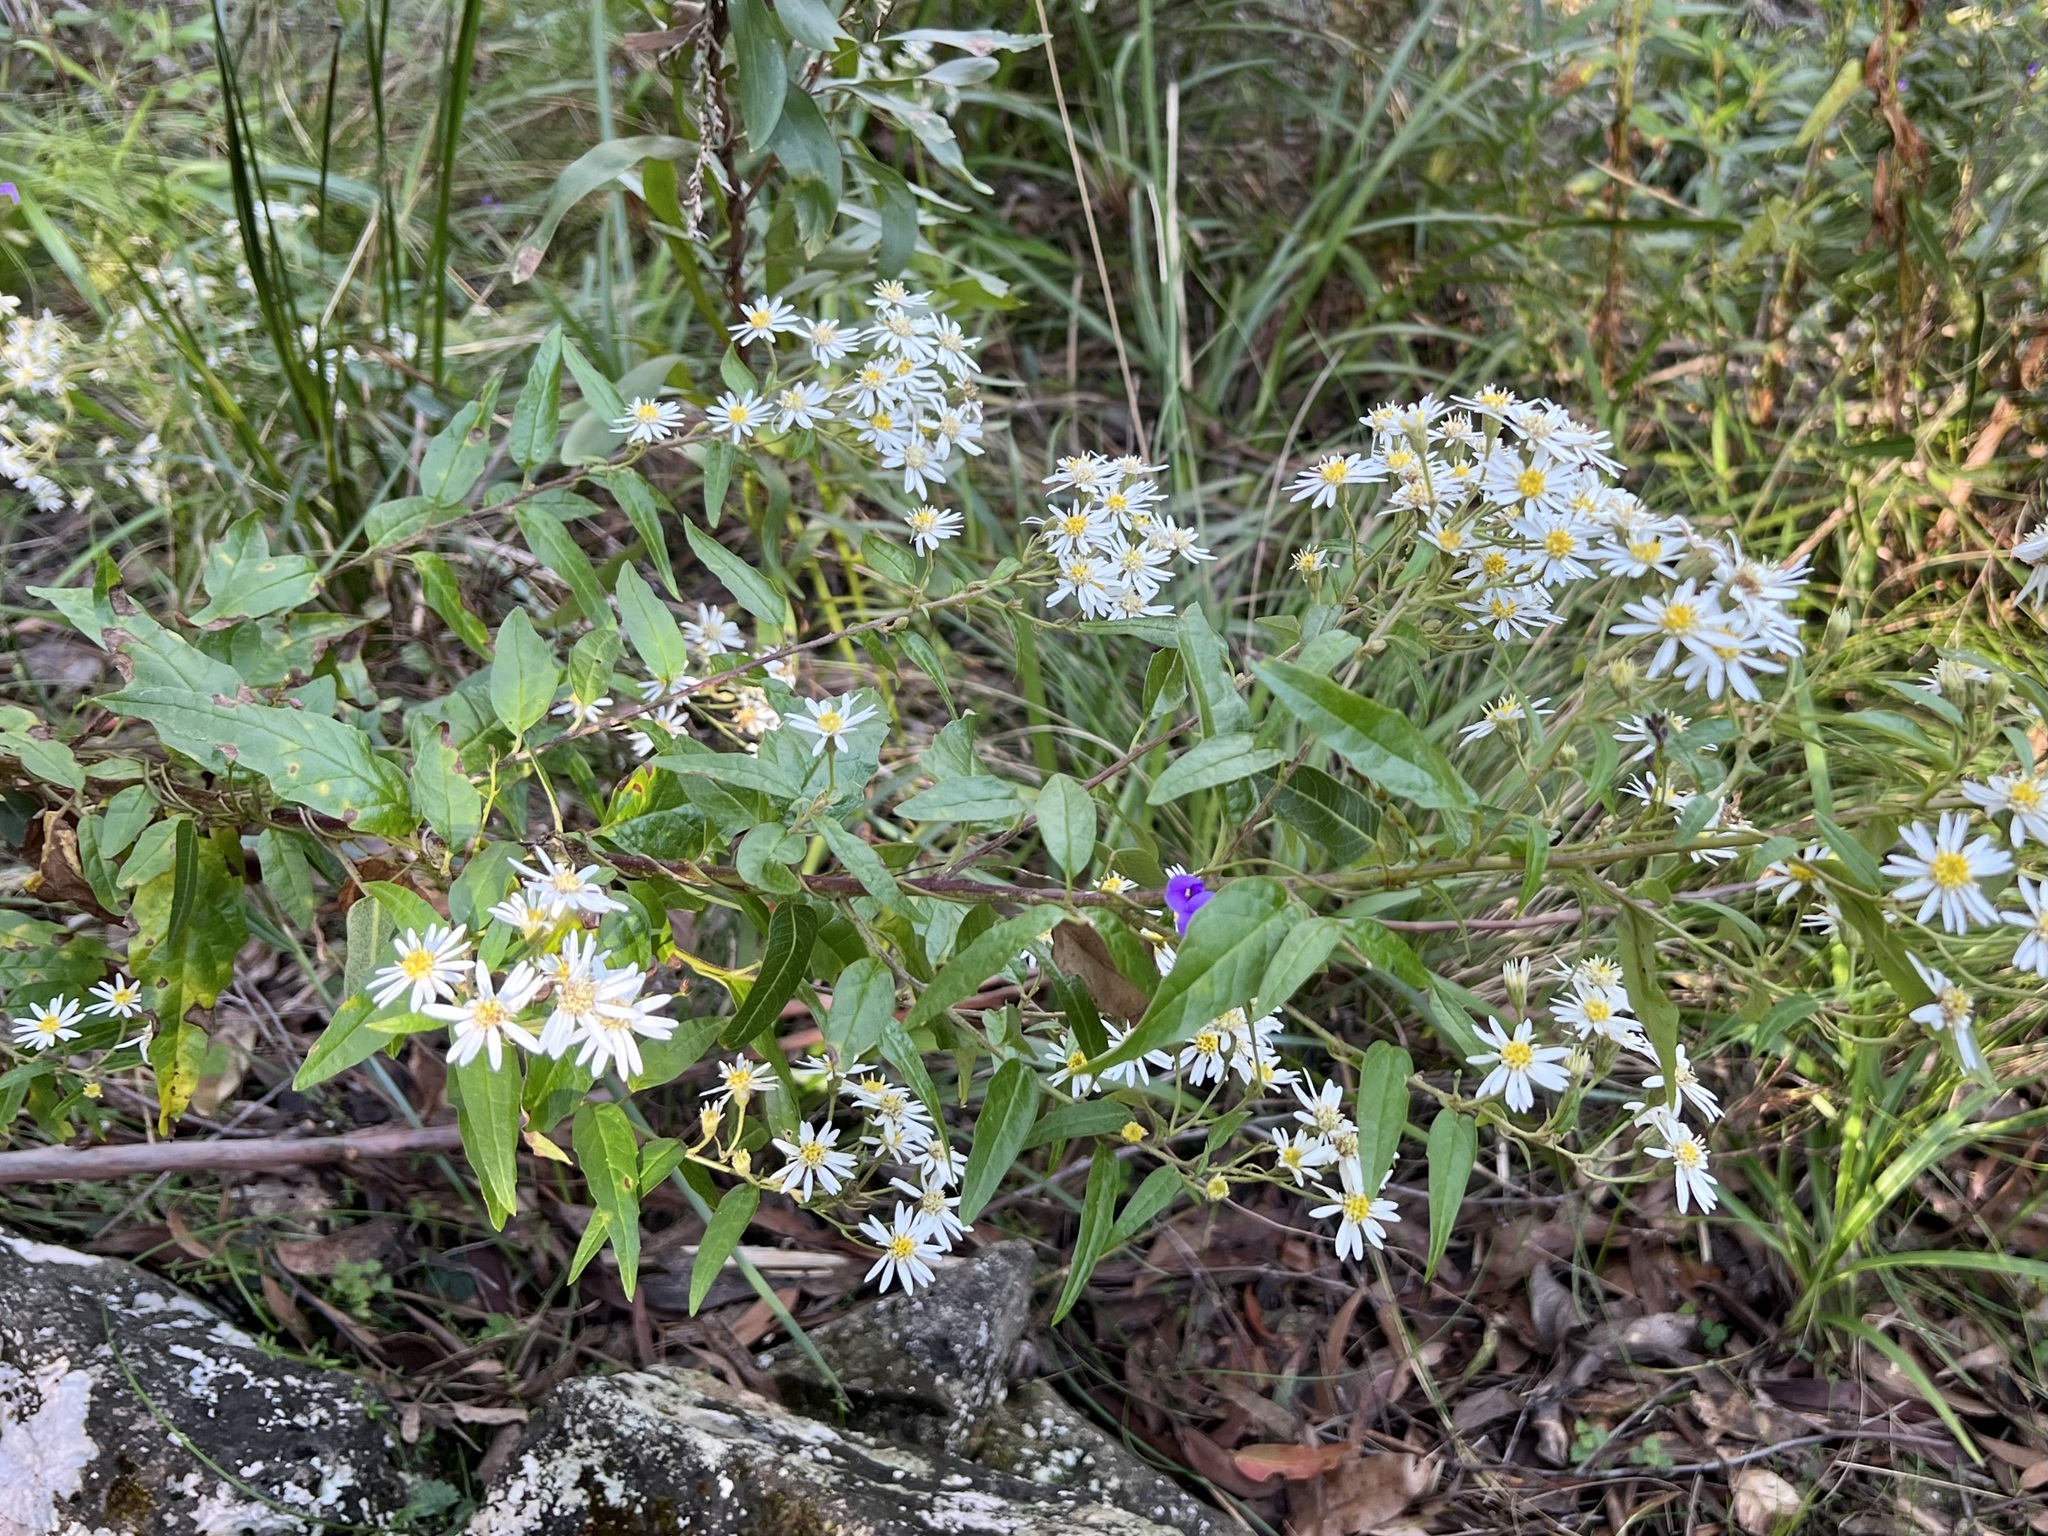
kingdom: Plantae
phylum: Tracheophyta
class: Magnoliopsida
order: Asterales
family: Asteraceae
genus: Olearia
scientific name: Olearia nernstii
